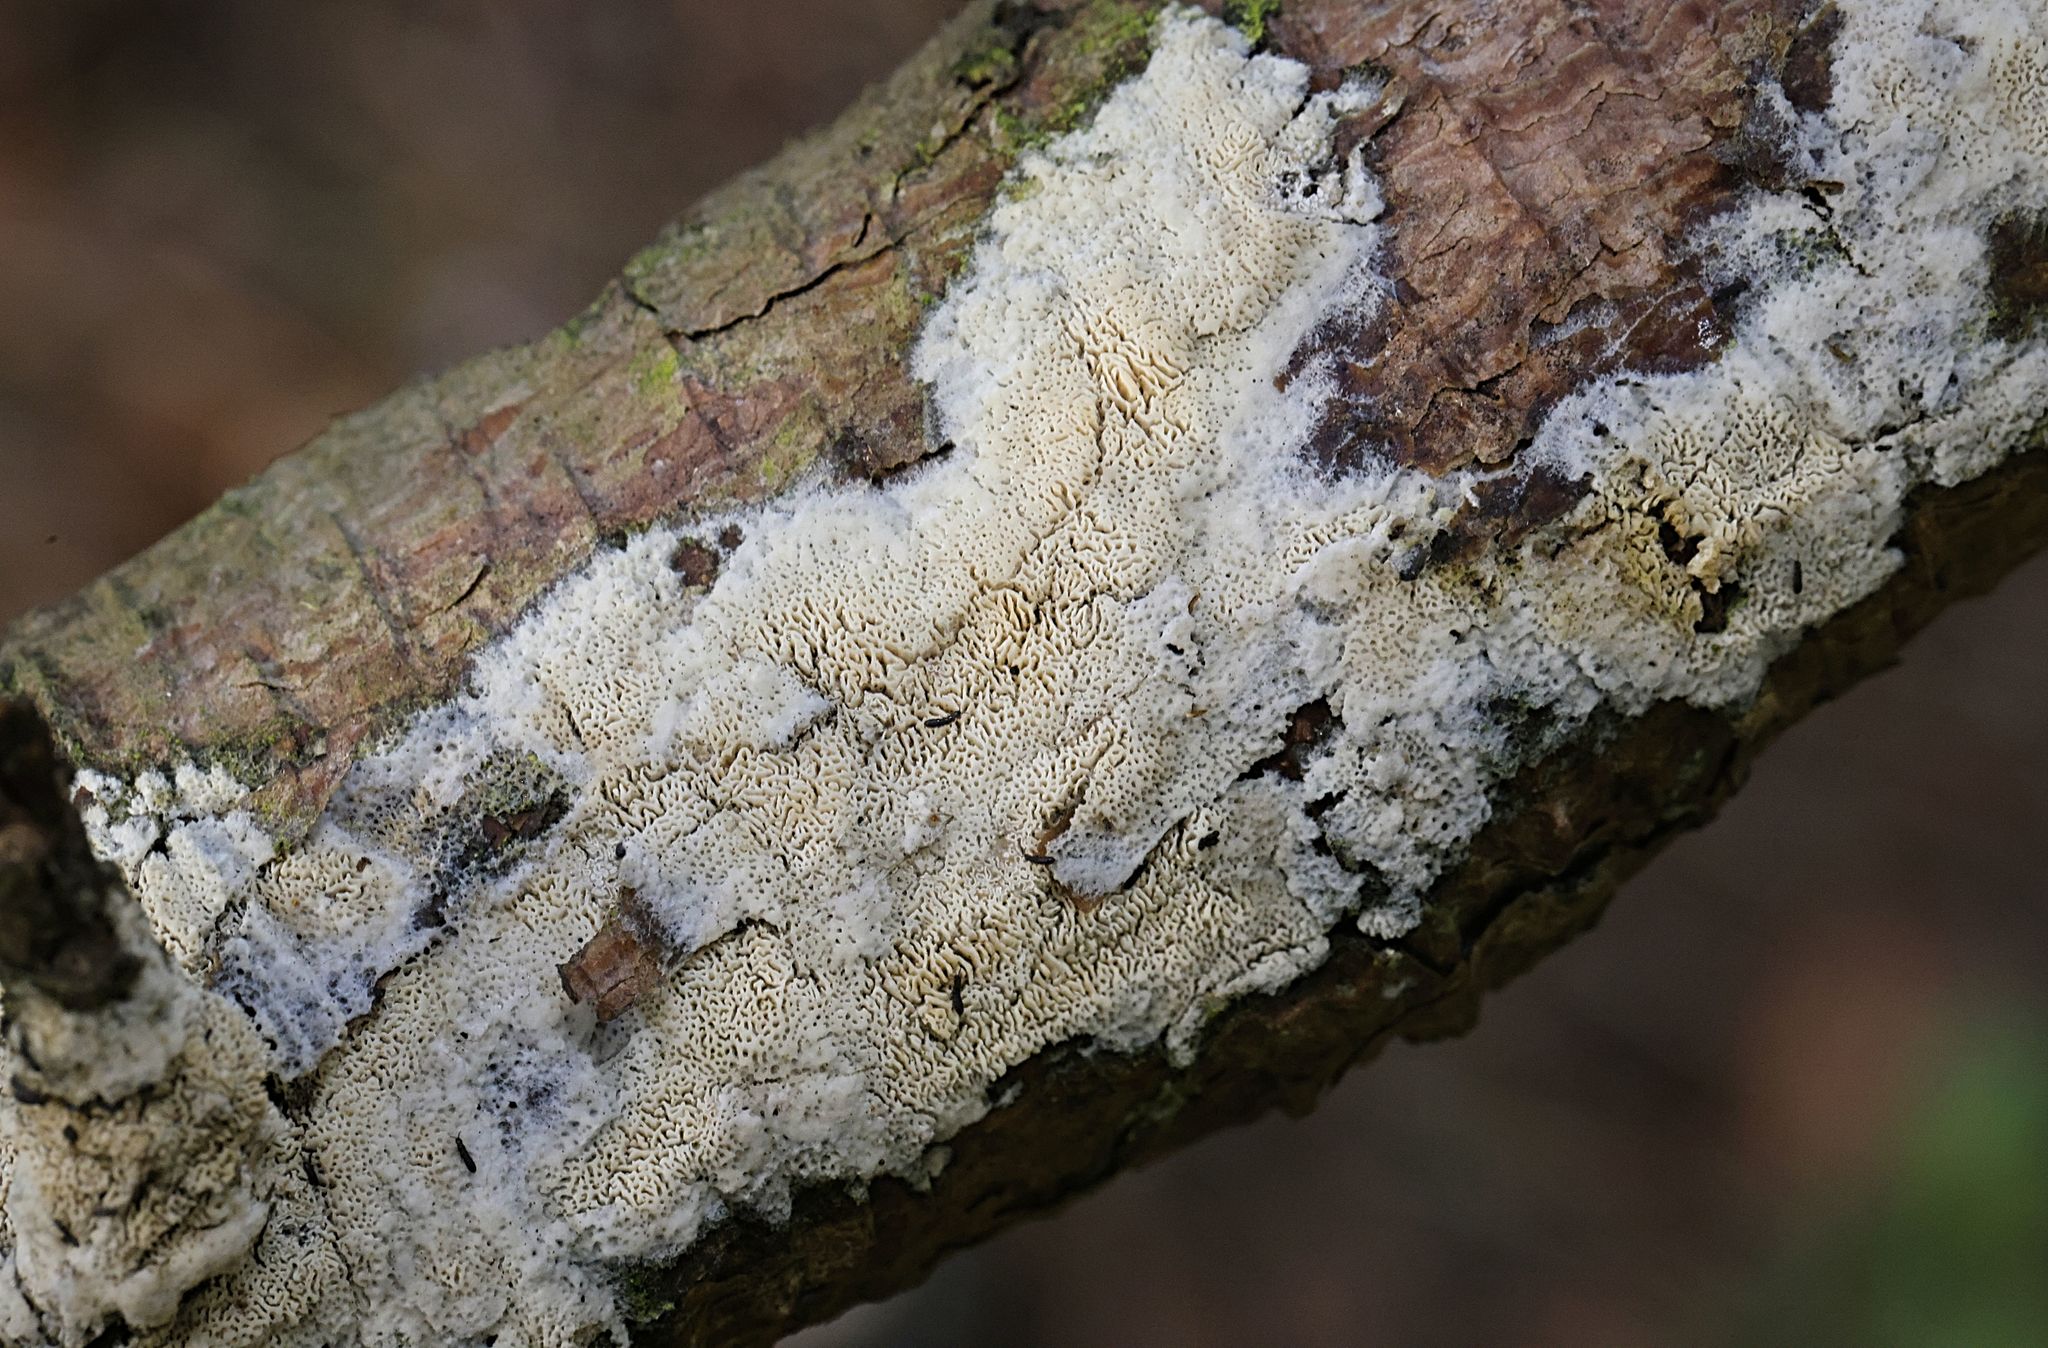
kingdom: Fungi
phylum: Basidiomycota
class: Agaricomycetes
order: Hymenochaetales
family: Schizoporaceae
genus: Schizopora
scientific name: Schizopora paradoxa
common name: Split porecrust
